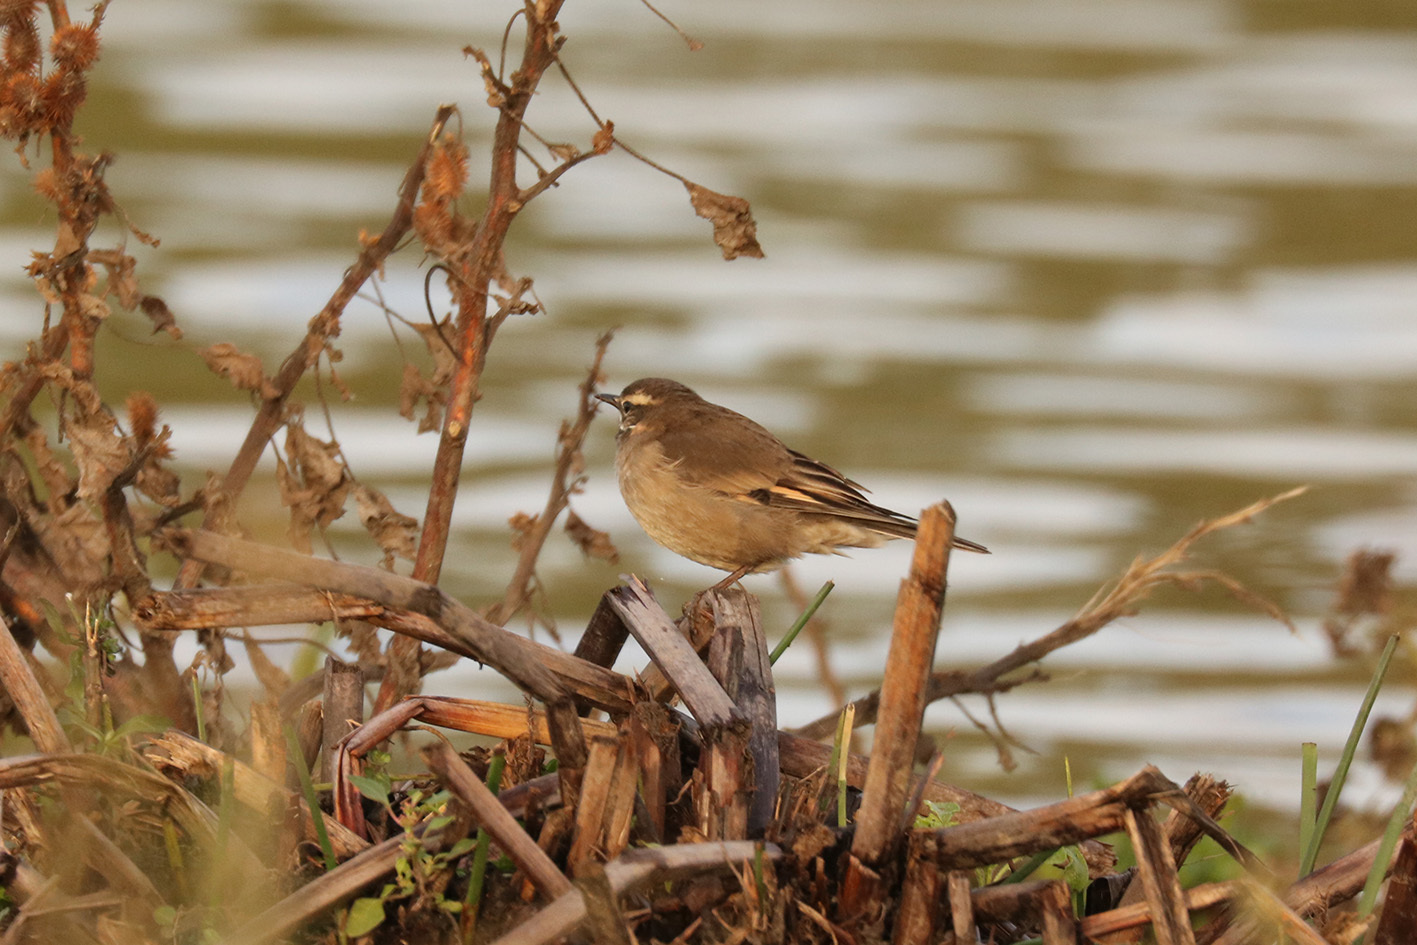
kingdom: Animalia
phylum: Chordata
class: Aves
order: Passeriformes
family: Furnariidae
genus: Cinclodes
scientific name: Cinclodes fuscus
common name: Buff-winged cinclodes
